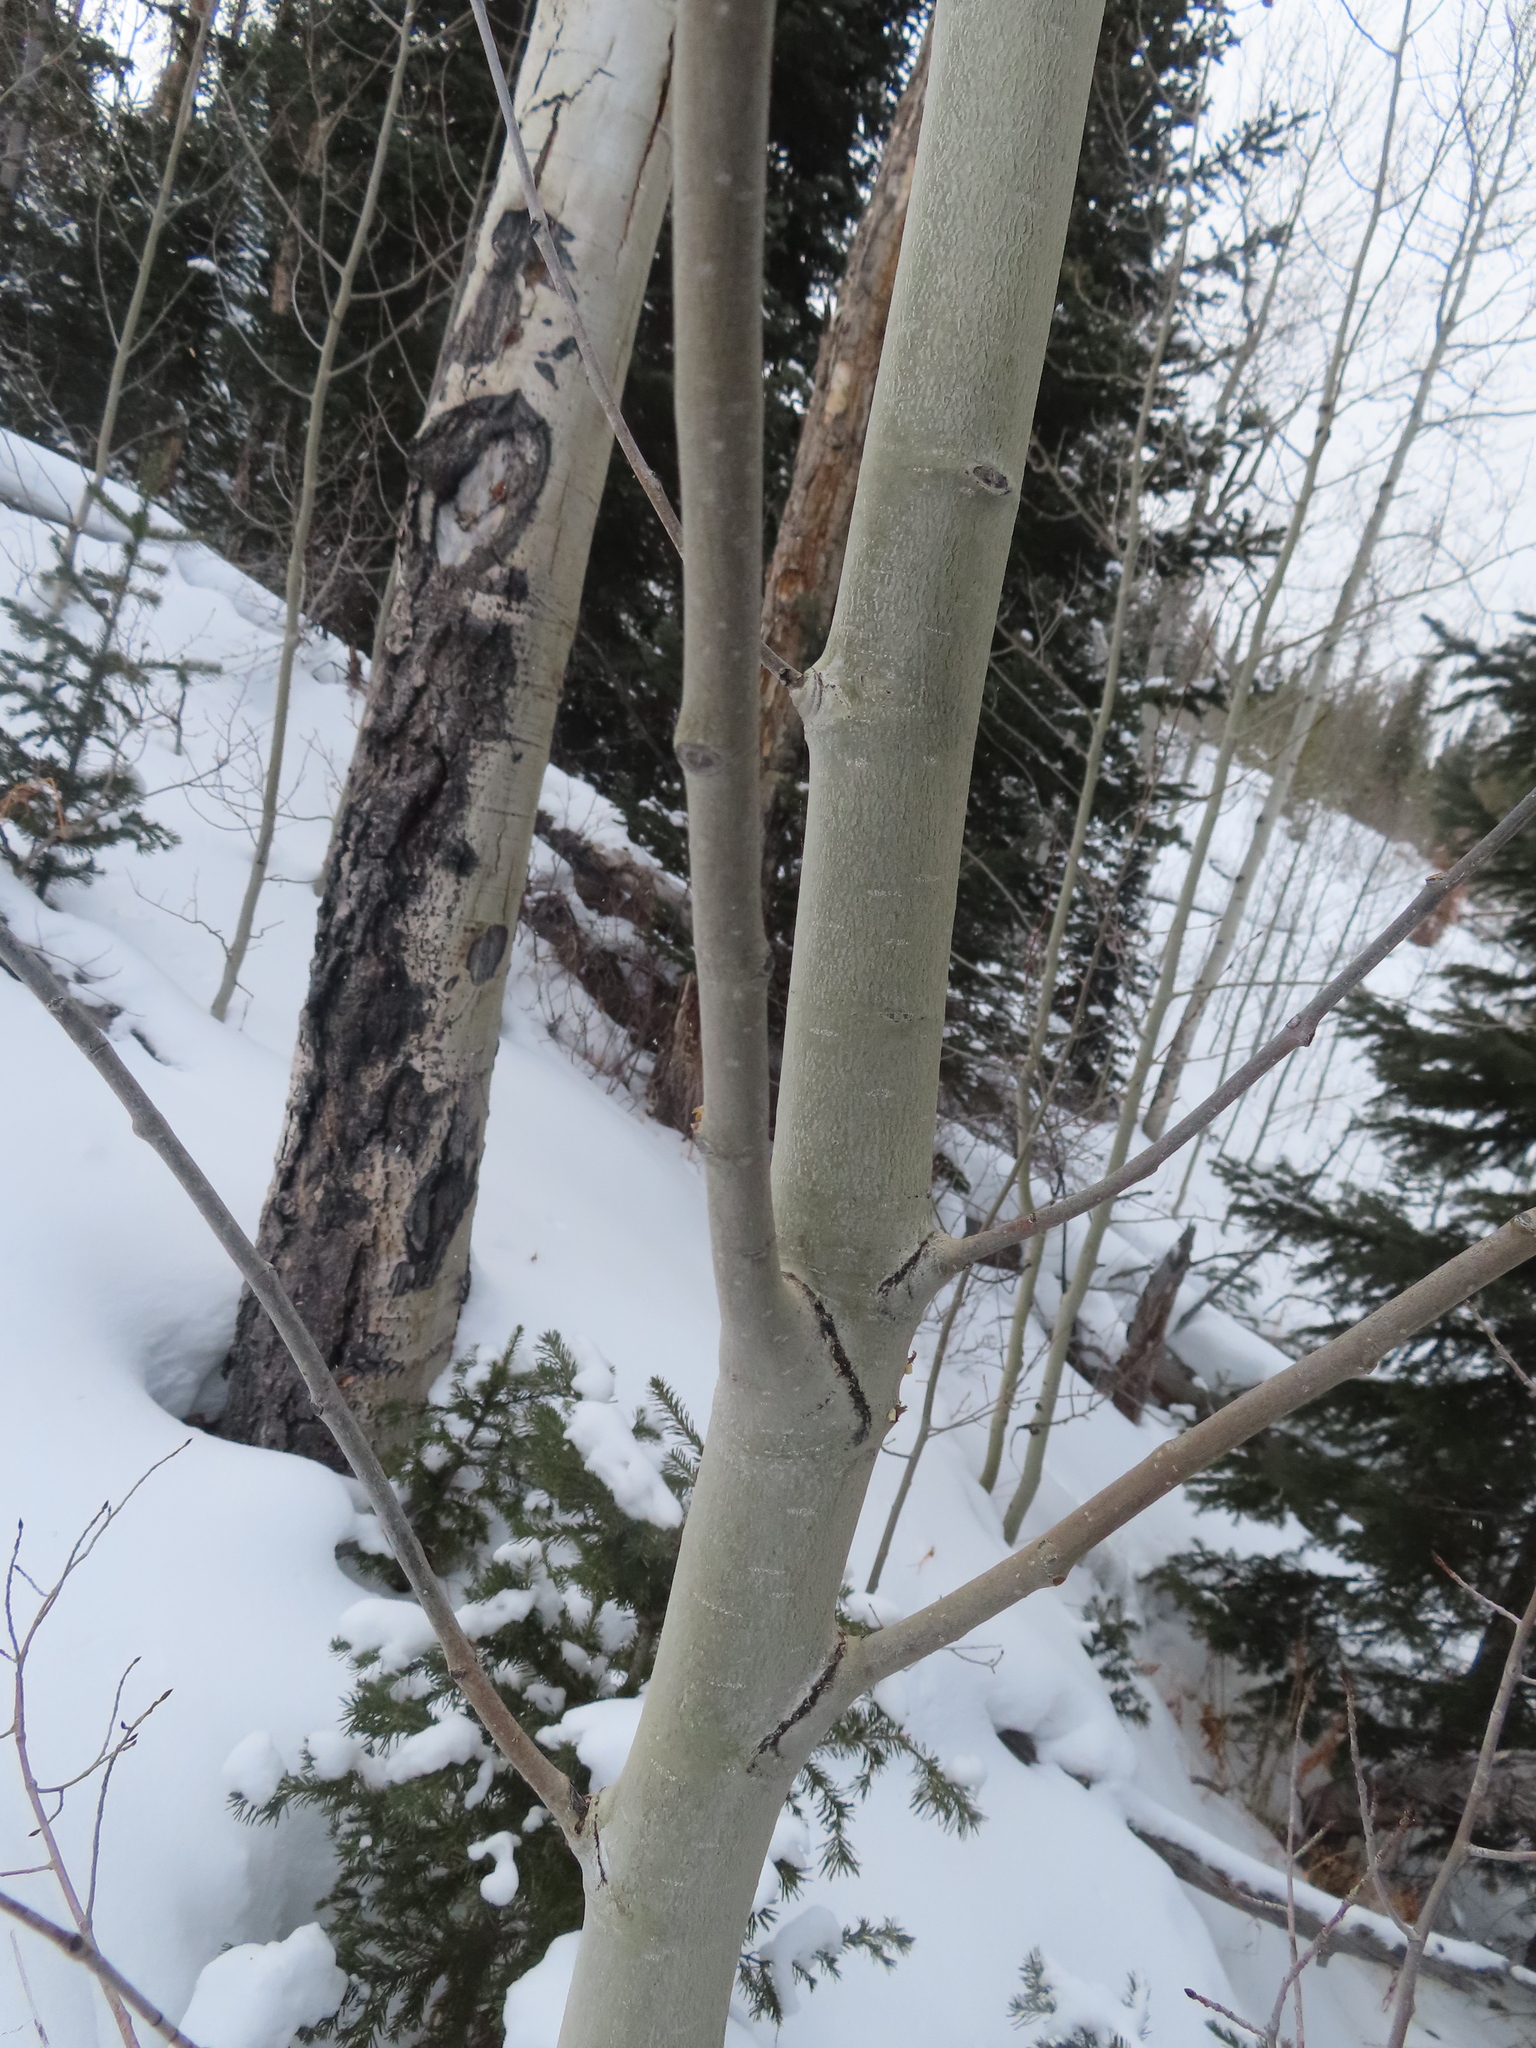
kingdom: Plantae
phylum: Tracheophyta
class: Magnoliopsida
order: Malpighiales
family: Salicaceae
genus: Populus
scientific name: Populus tremuloides
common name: Quaking aspen
